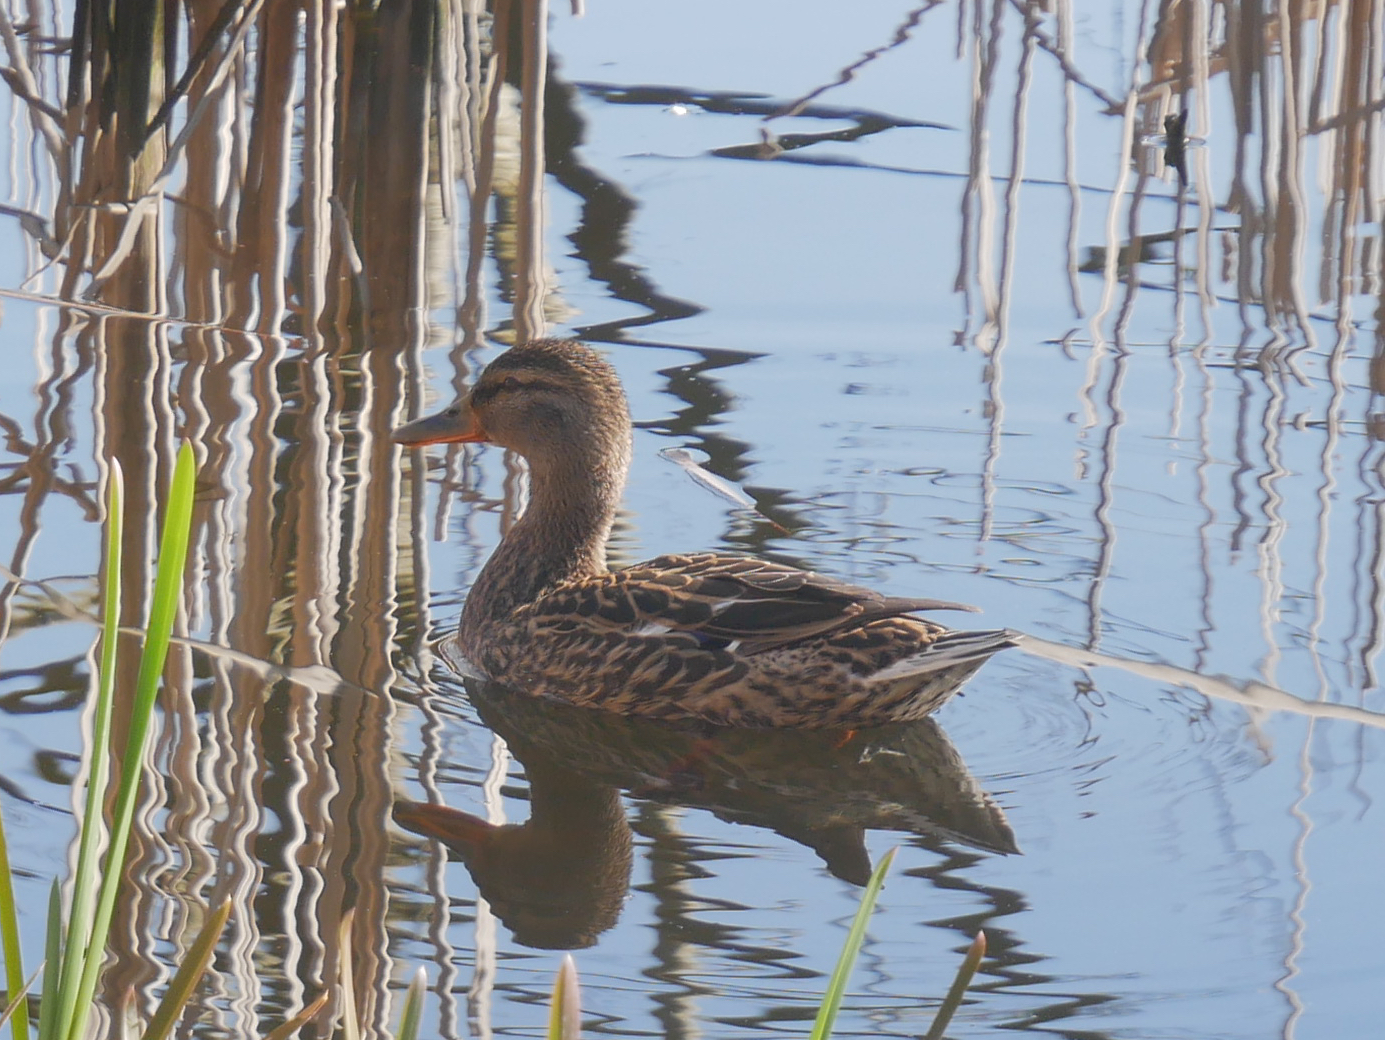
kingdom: Animalia
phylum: Chordata
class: Aves
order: Anseriformes
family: Anatidae
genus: Anas
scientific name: Anas platyrhynchos
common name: Mallard
